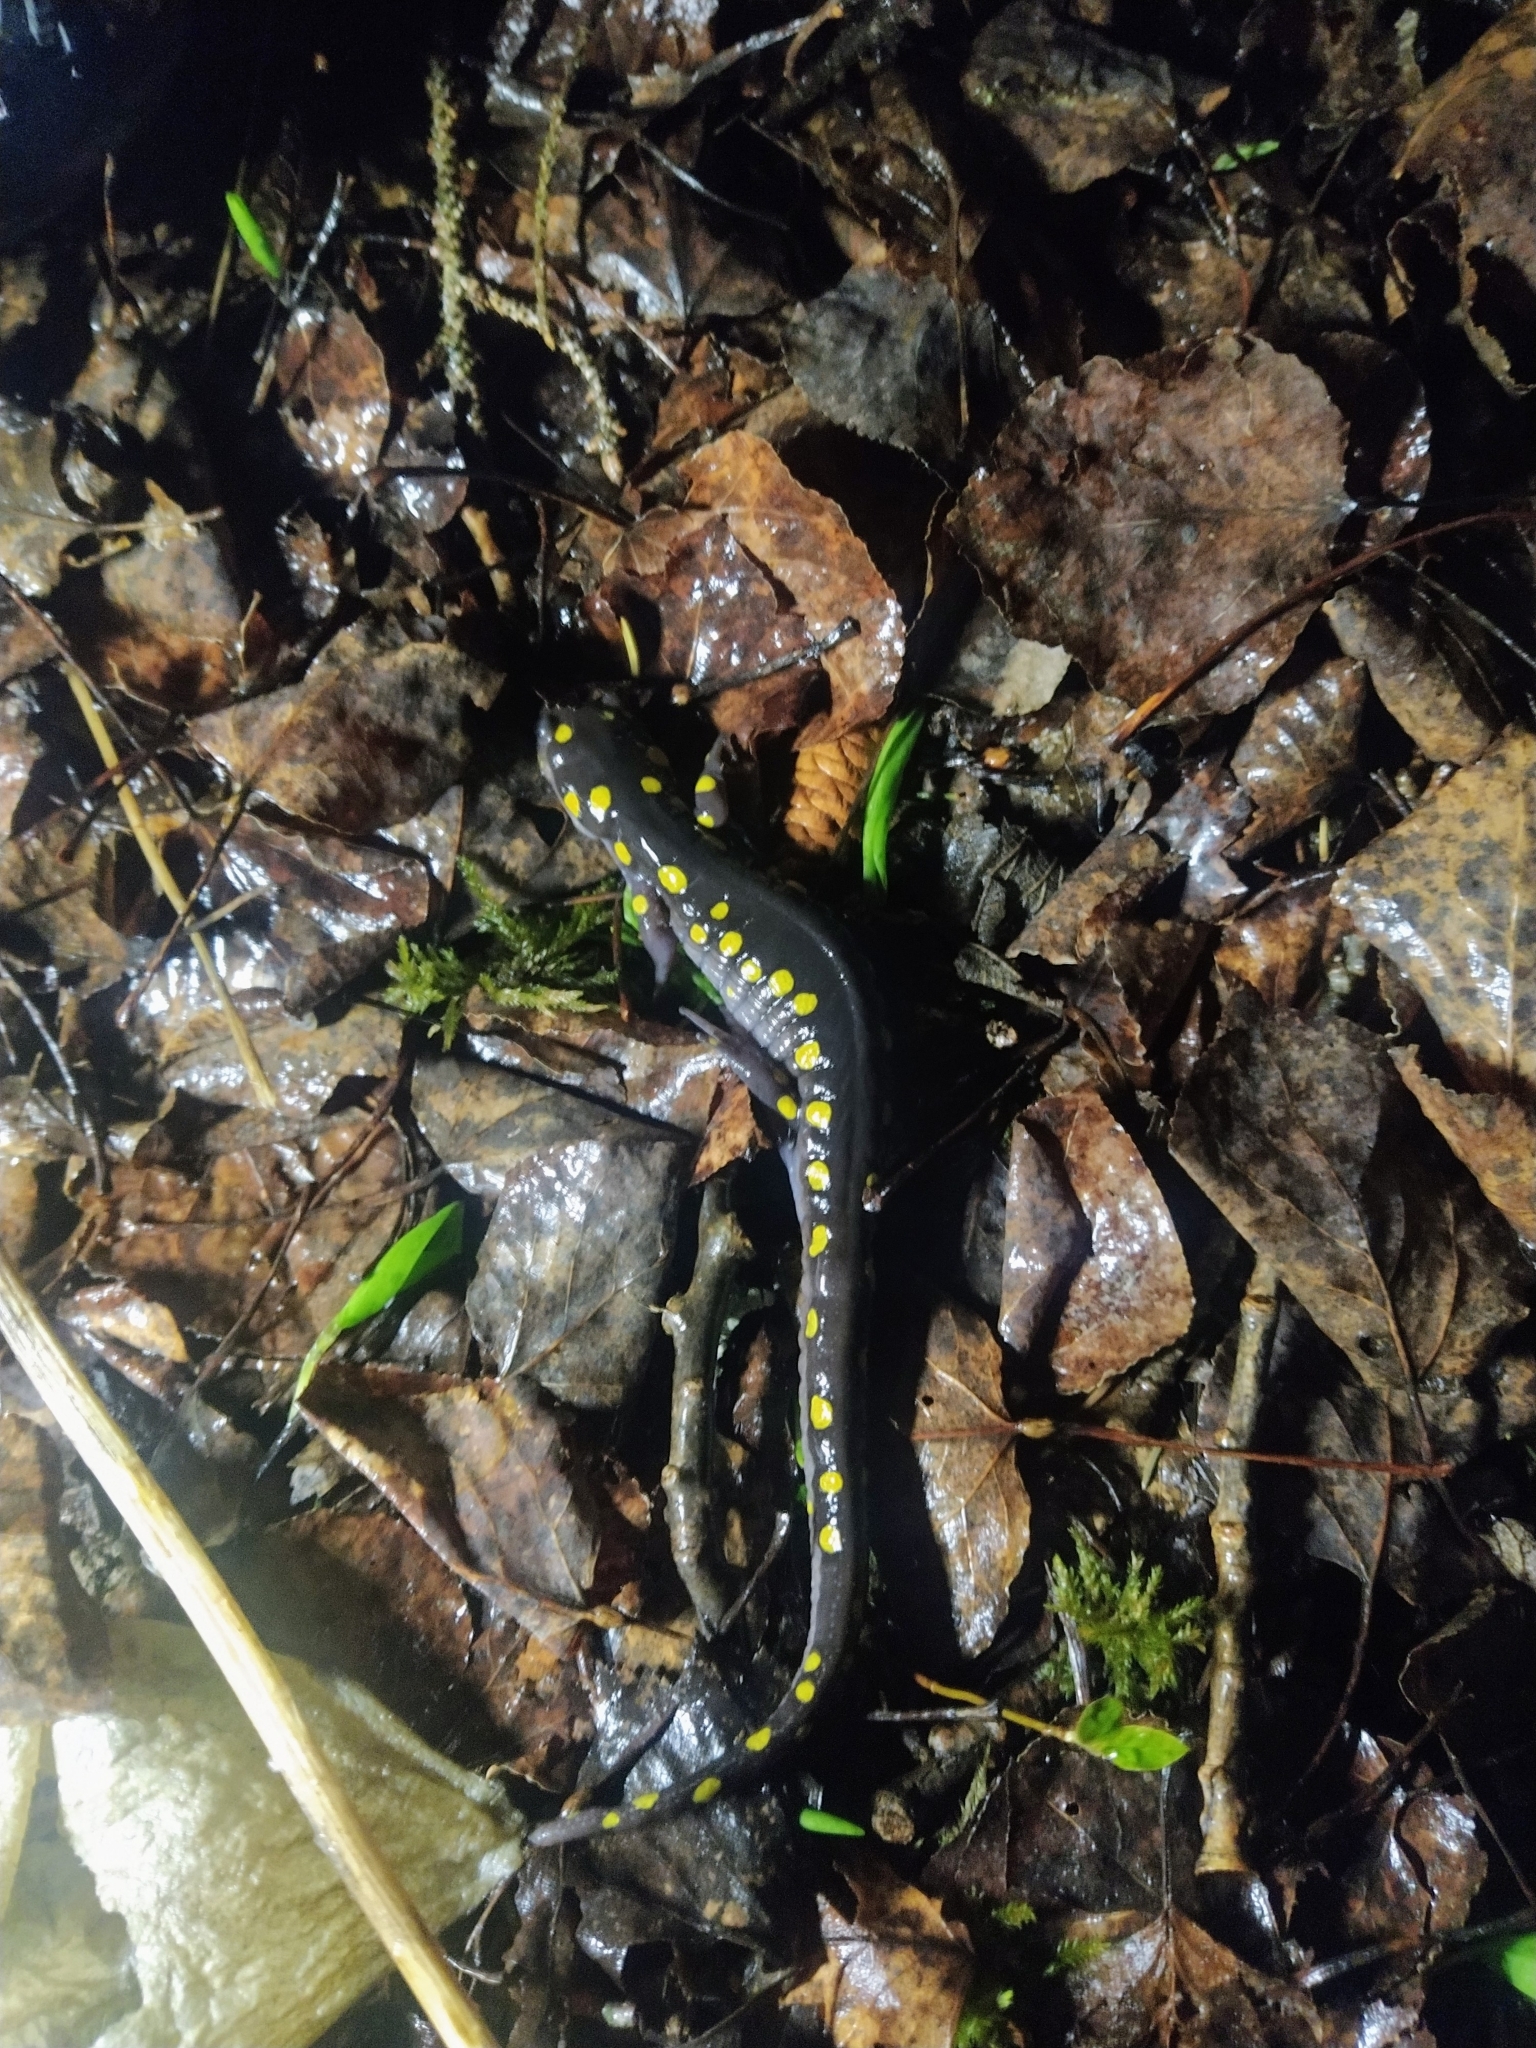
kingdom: Animalia
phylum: Chordata
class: Amphibia
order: Caudata
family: Ambystomatidae
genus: Ambystoma
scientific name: Ambystoma maculatum
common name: Spotted salamander
